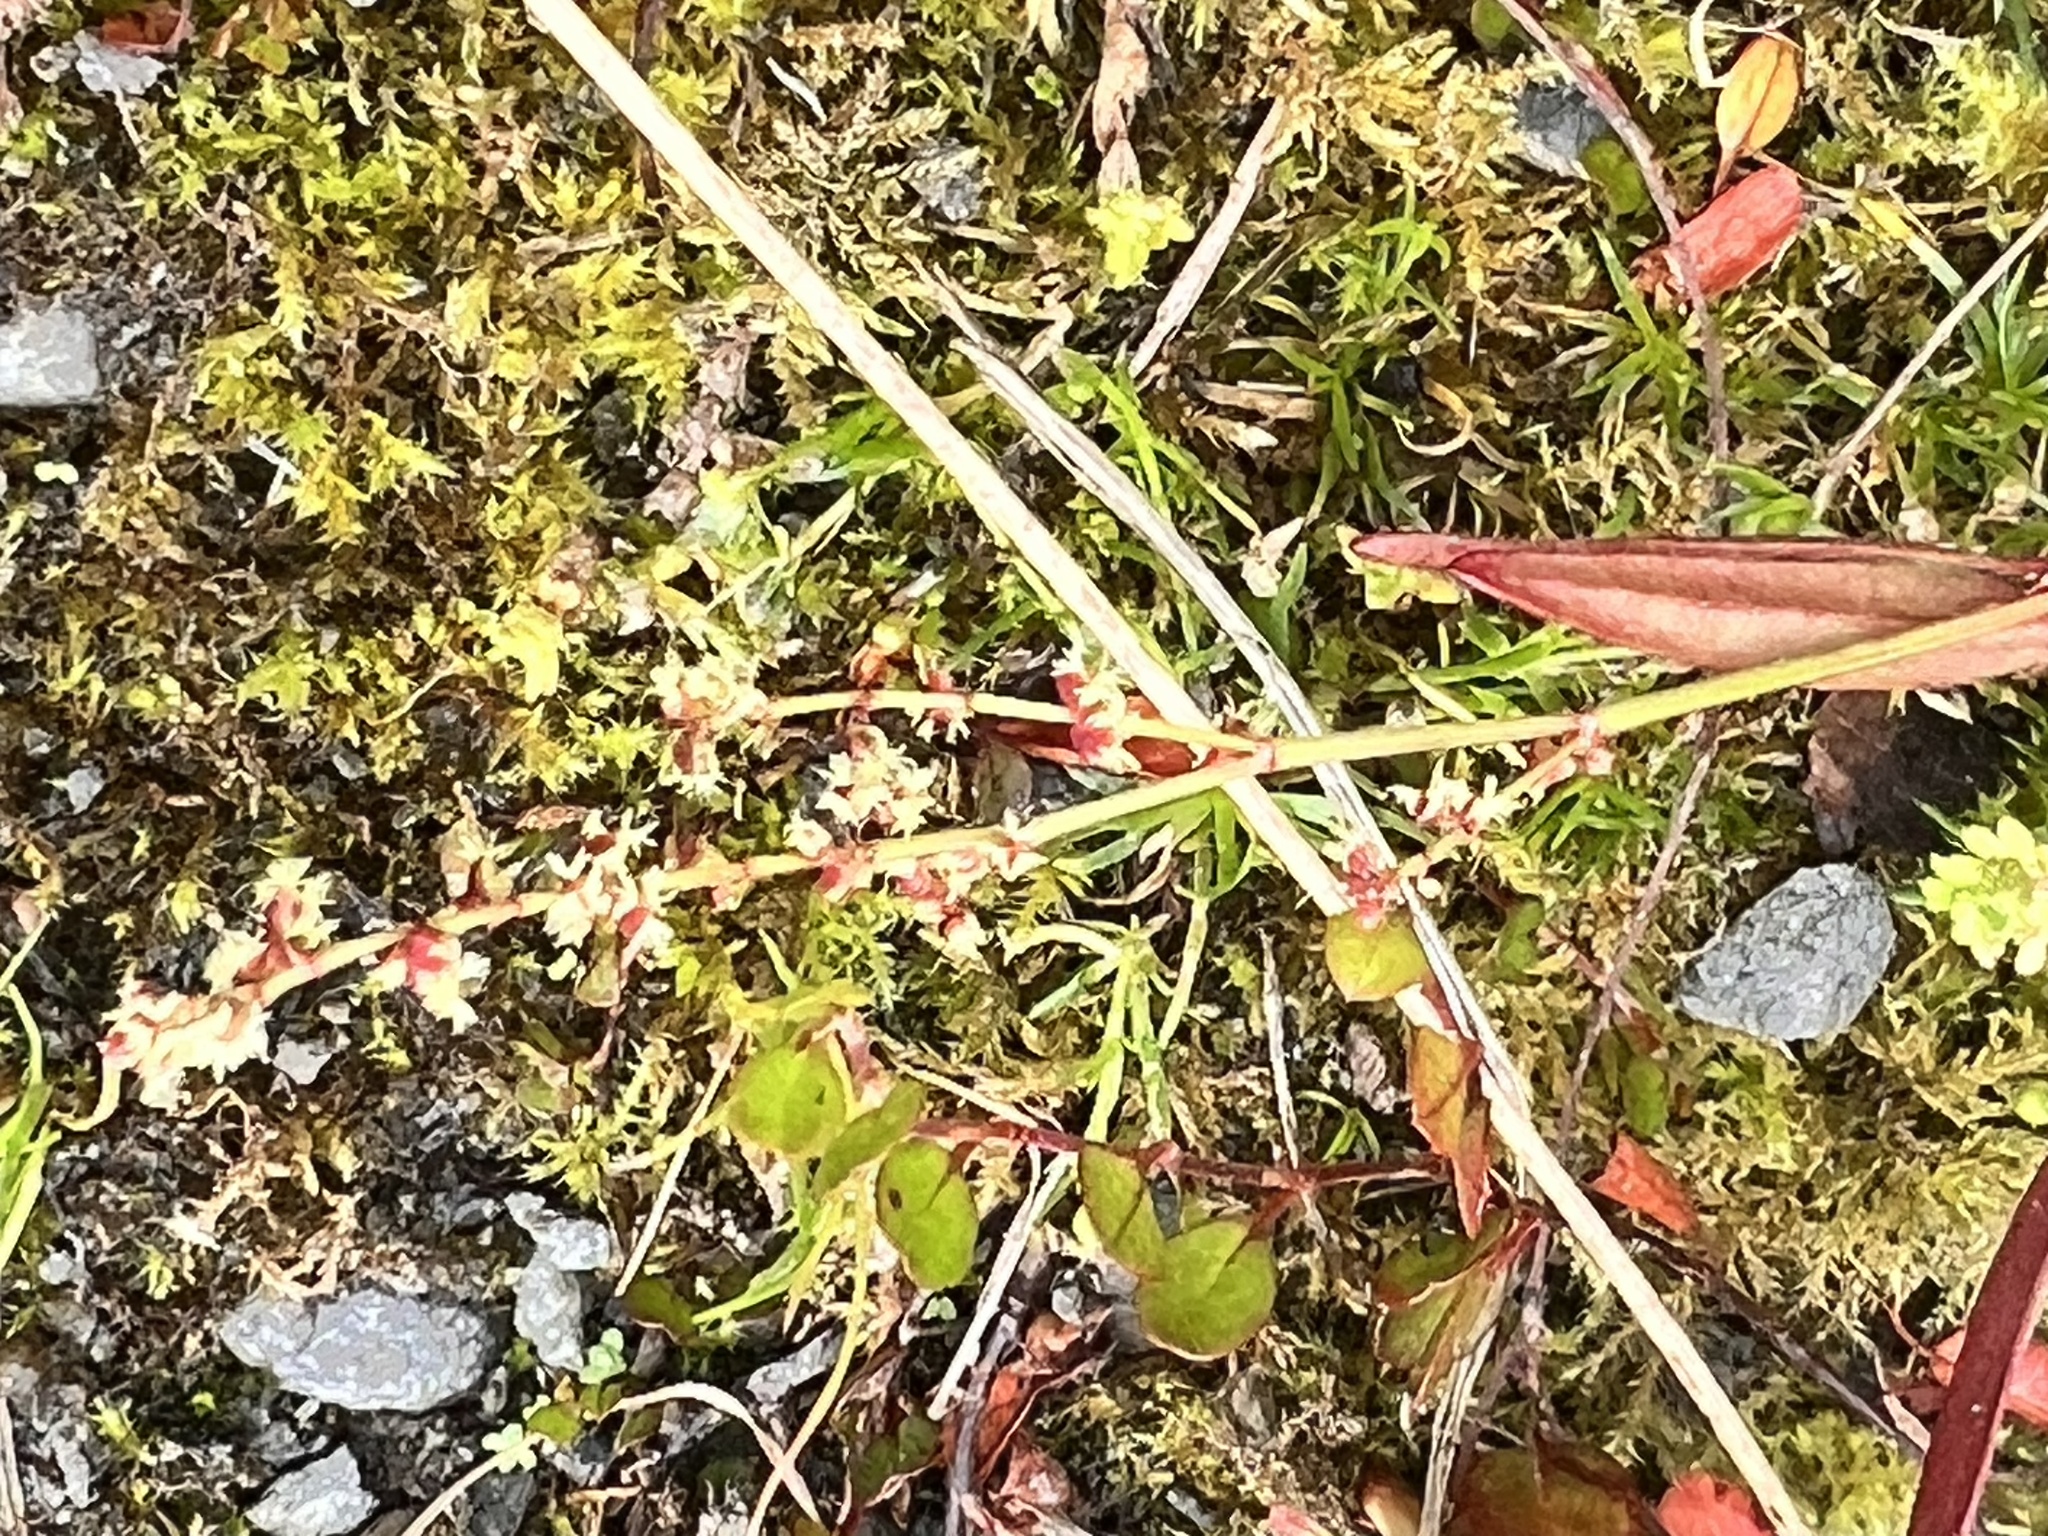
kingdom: Plantae
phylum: Tracheophyta
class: Magnoliopsida
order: Caryophyllales
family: Polygonaceae
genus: Rumex
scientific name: Rumex acetosella
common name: Common sheep sorrel
